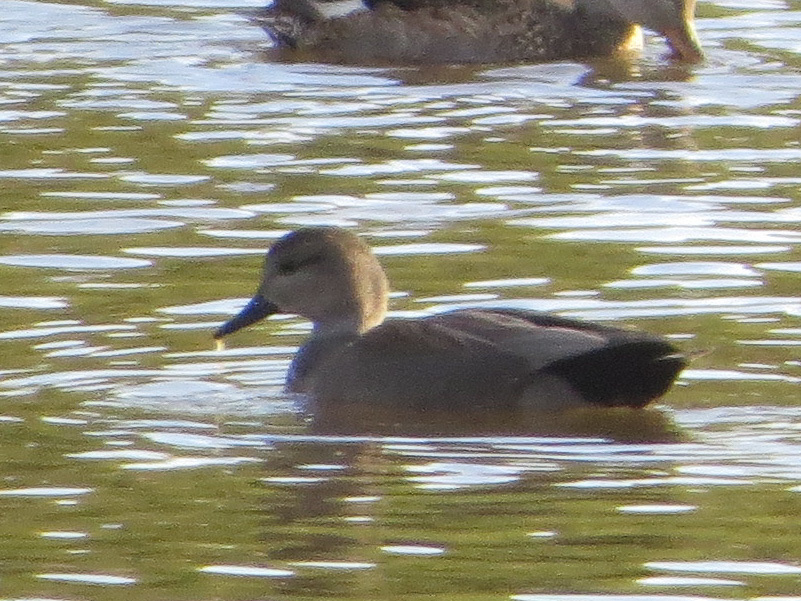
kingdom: Animalia
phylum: Chordata
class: Aves
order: Anseriformes
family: Anatidae
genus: Mareca
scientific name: Mareca strepera
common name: Gadwall
